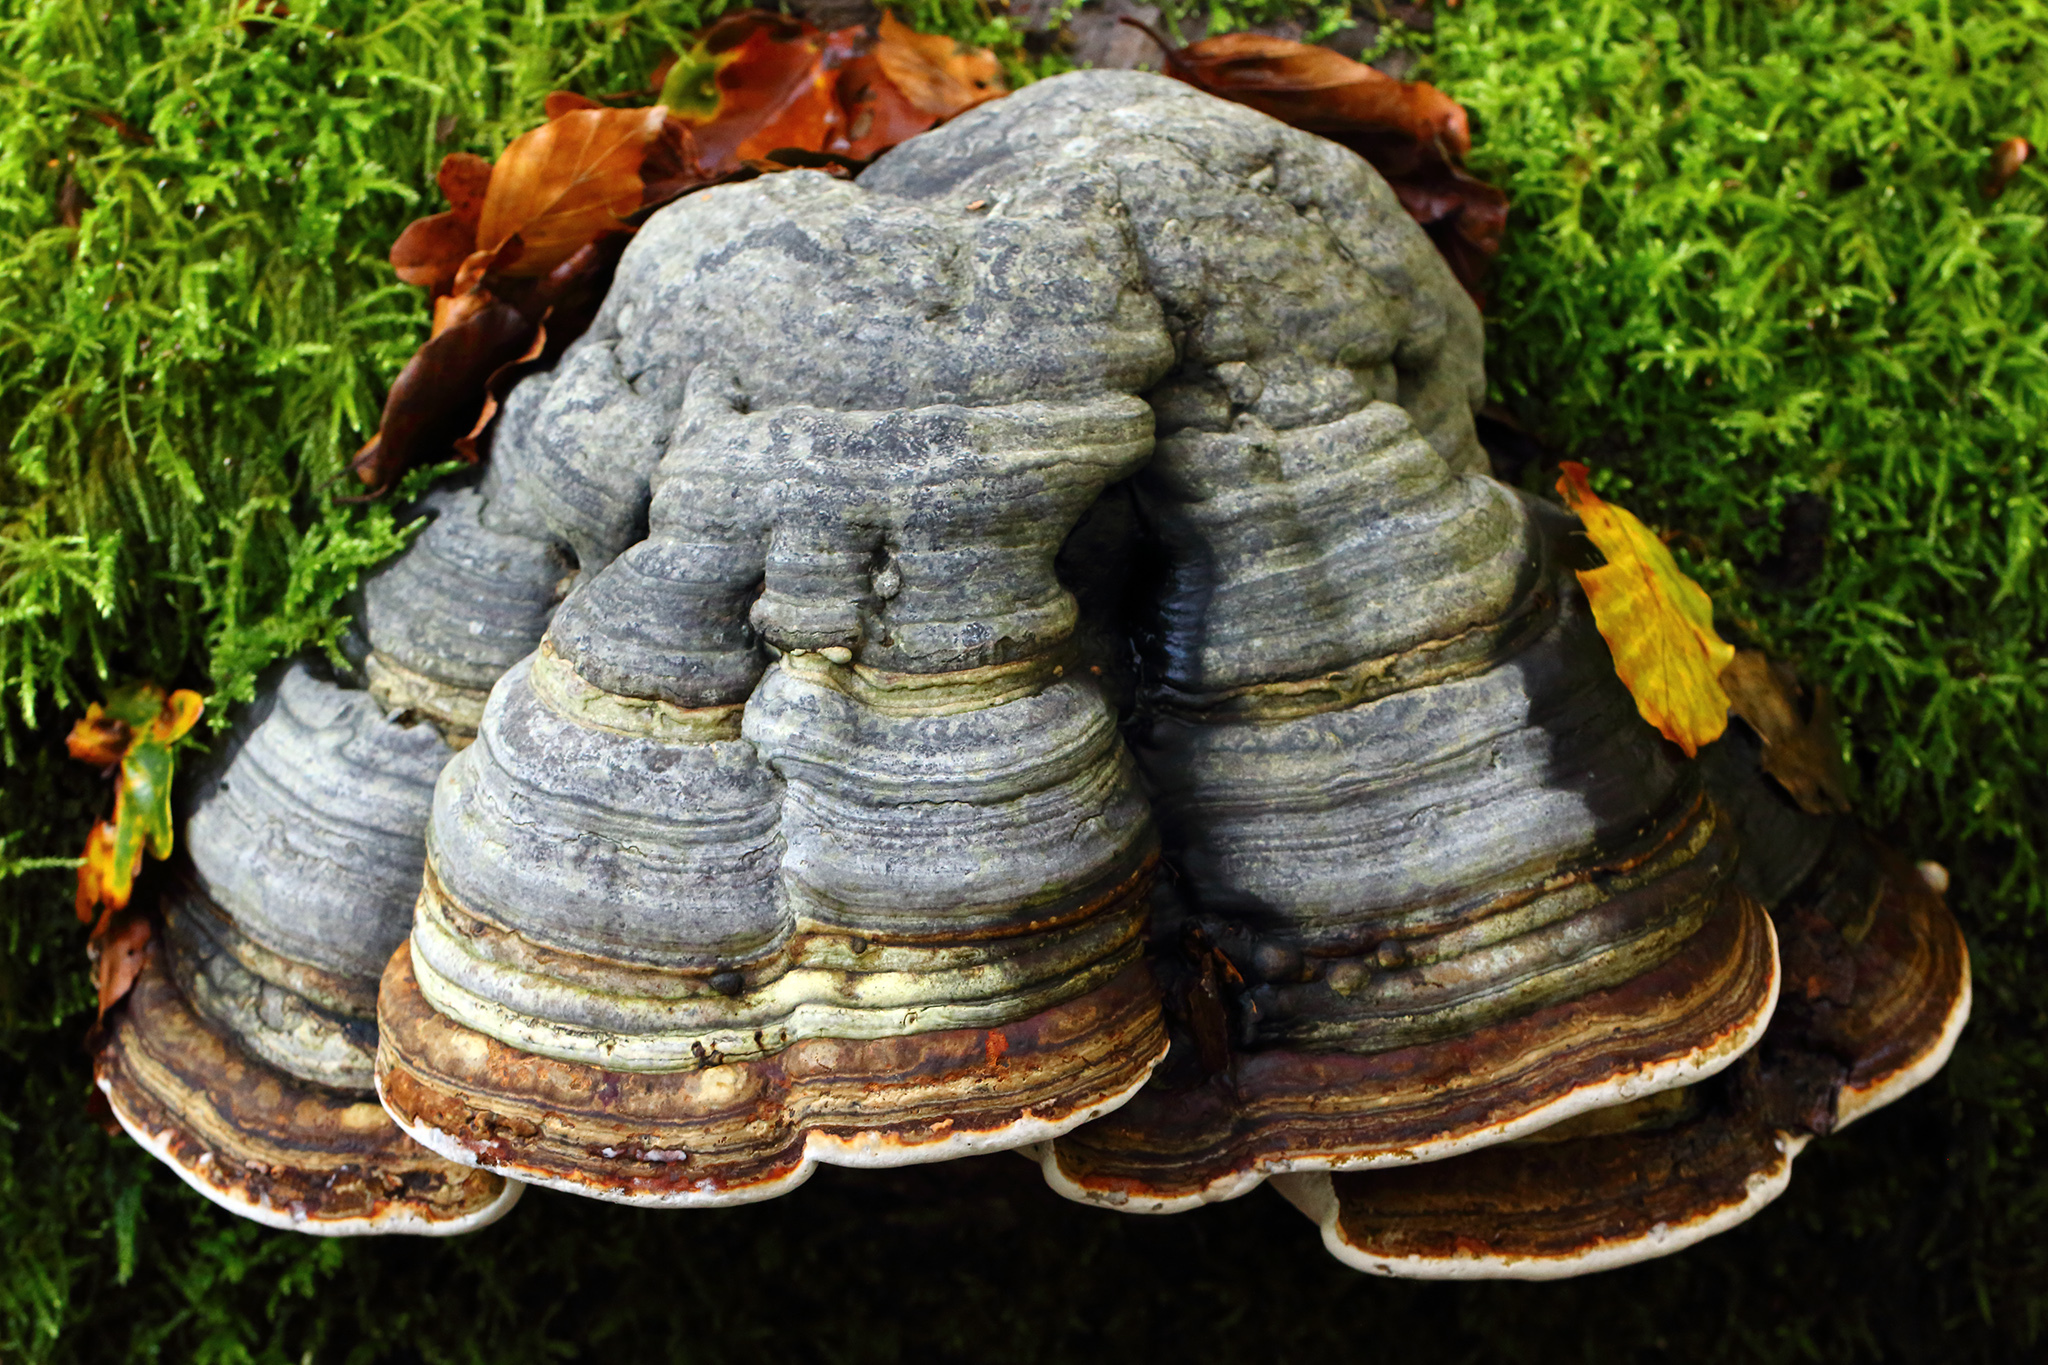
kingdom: Fungi
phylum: Basidiomycota
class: Agaricomycetes
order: Polyporales
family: Polyporaceae
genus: Fomes
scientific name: Fomes fomentarius
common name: Hoof fungus
